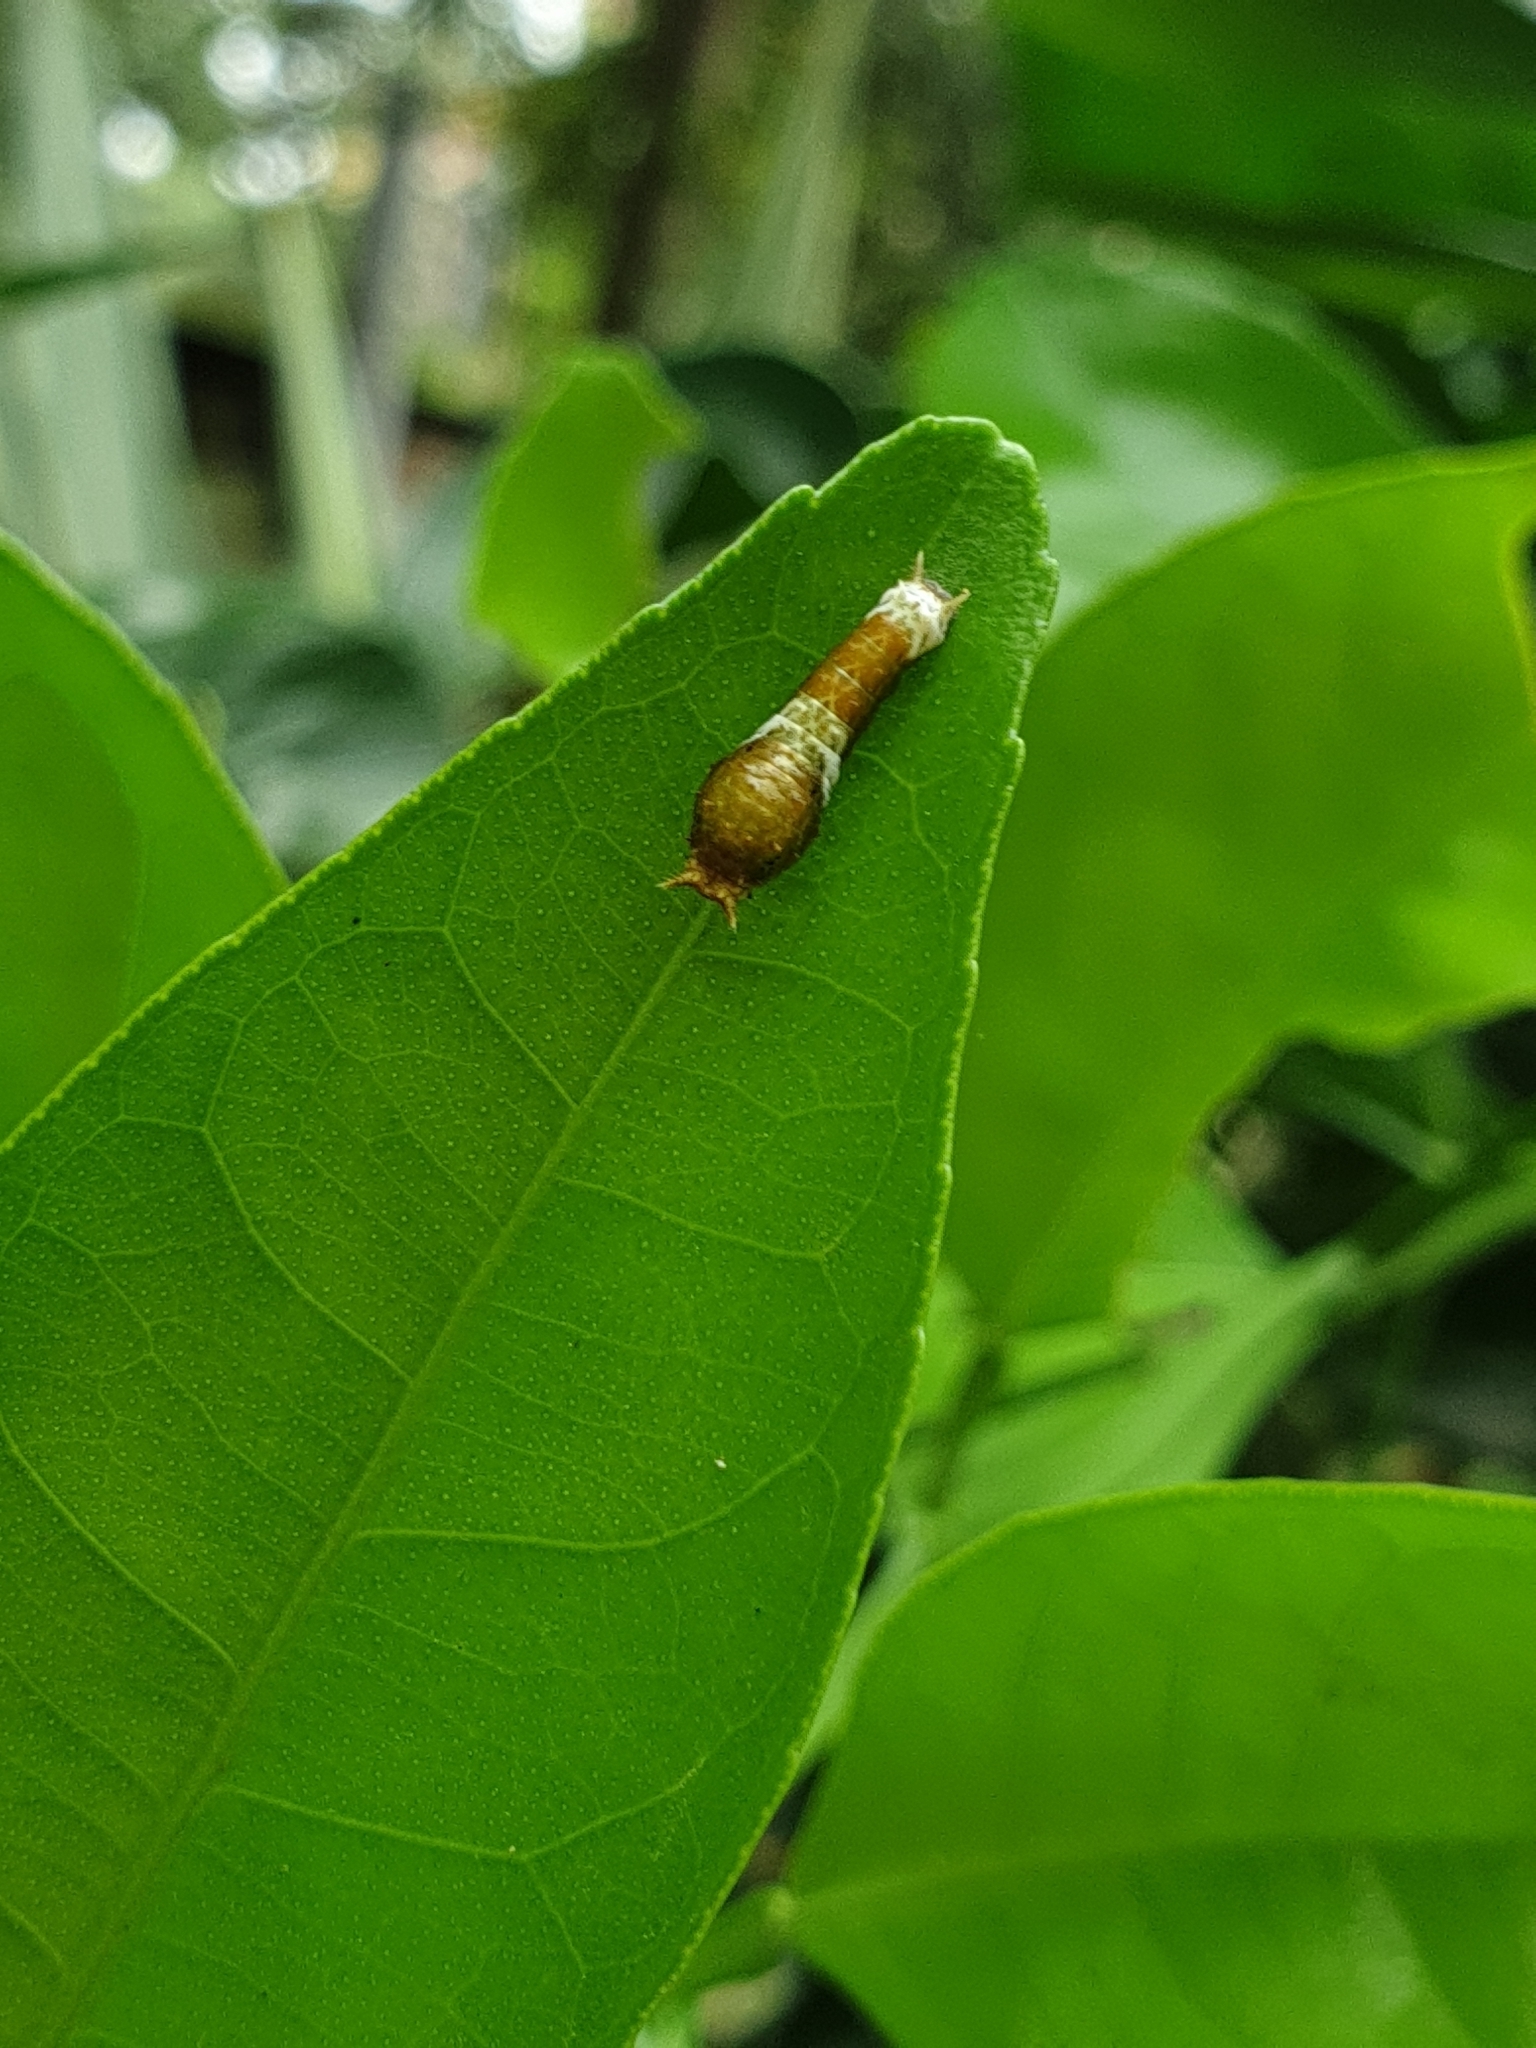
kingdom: Animalia
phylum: Arthropoda
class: Insecta
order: Lepidoptera
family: Papilionidae
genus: Papilio
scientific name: Papilio demoleus
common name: Lime butterfly
